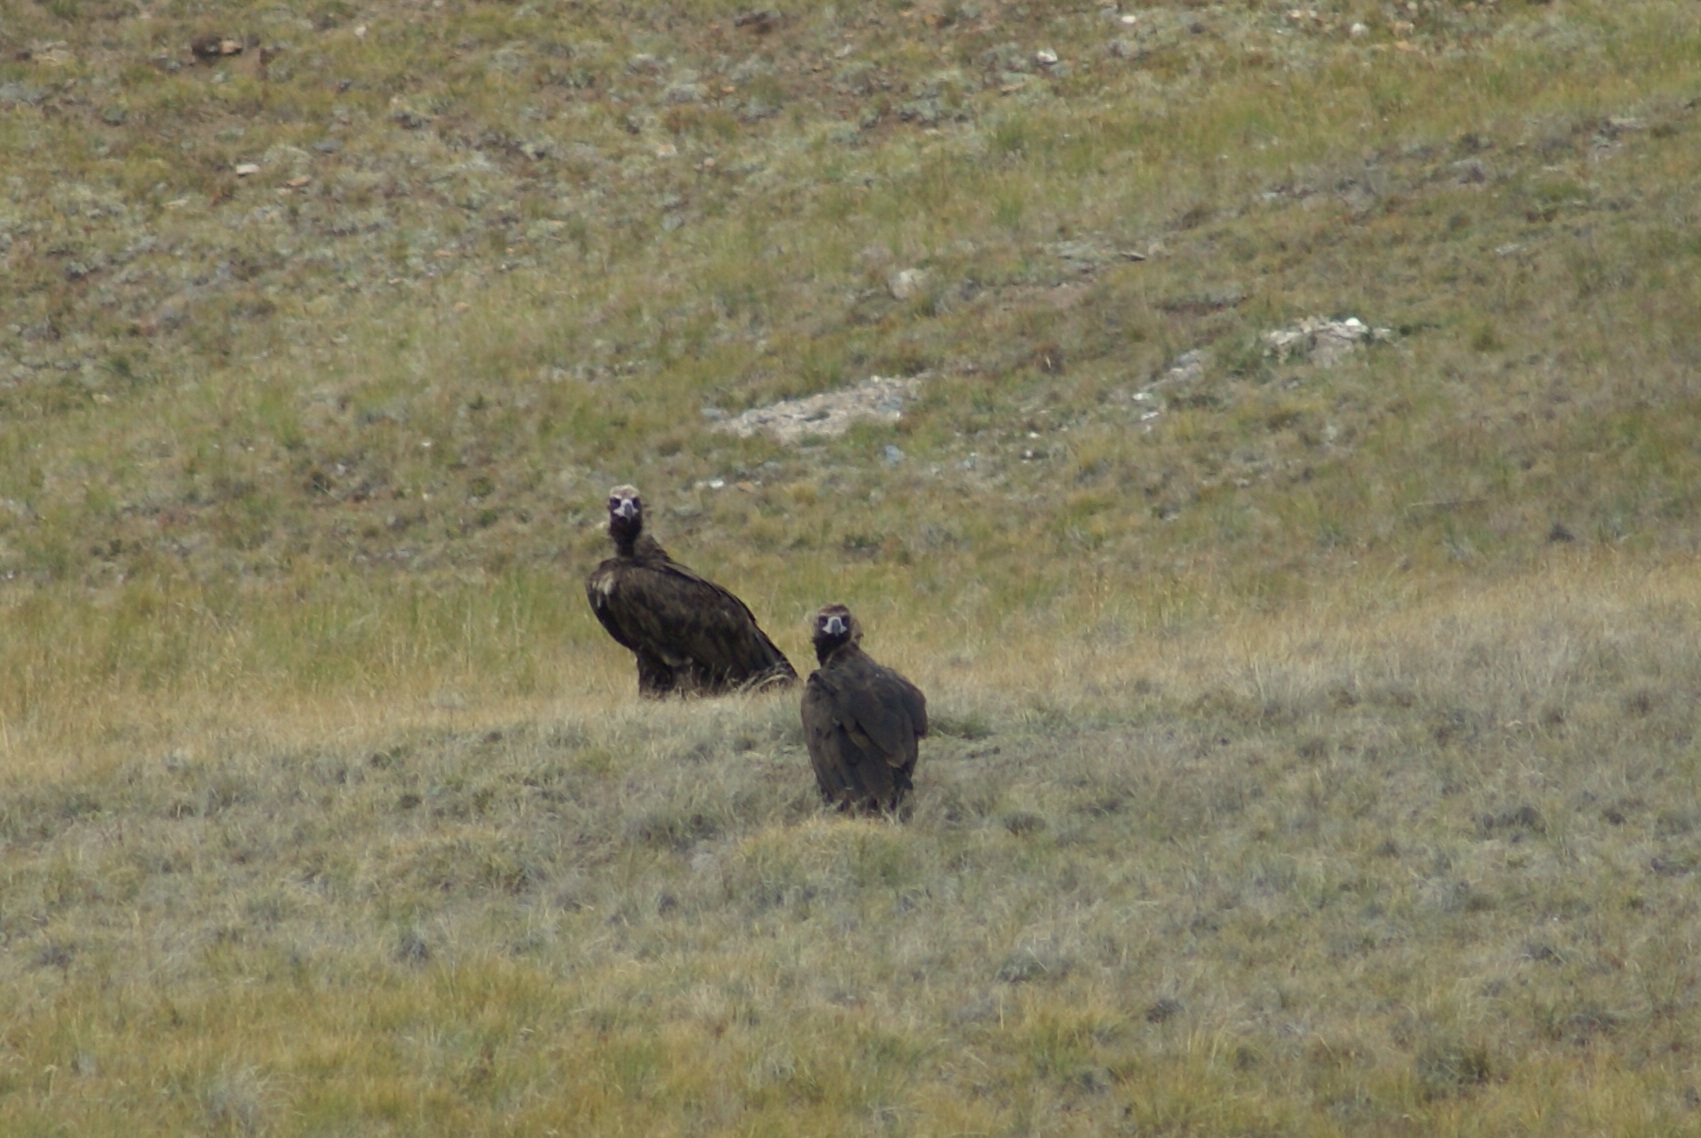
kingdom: Animalia
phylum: Chordata
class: Aves
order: Accipitriformes
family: Accipitridae
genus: Aegypius
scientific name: Aegypius monachus
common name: Cinereous vulture
